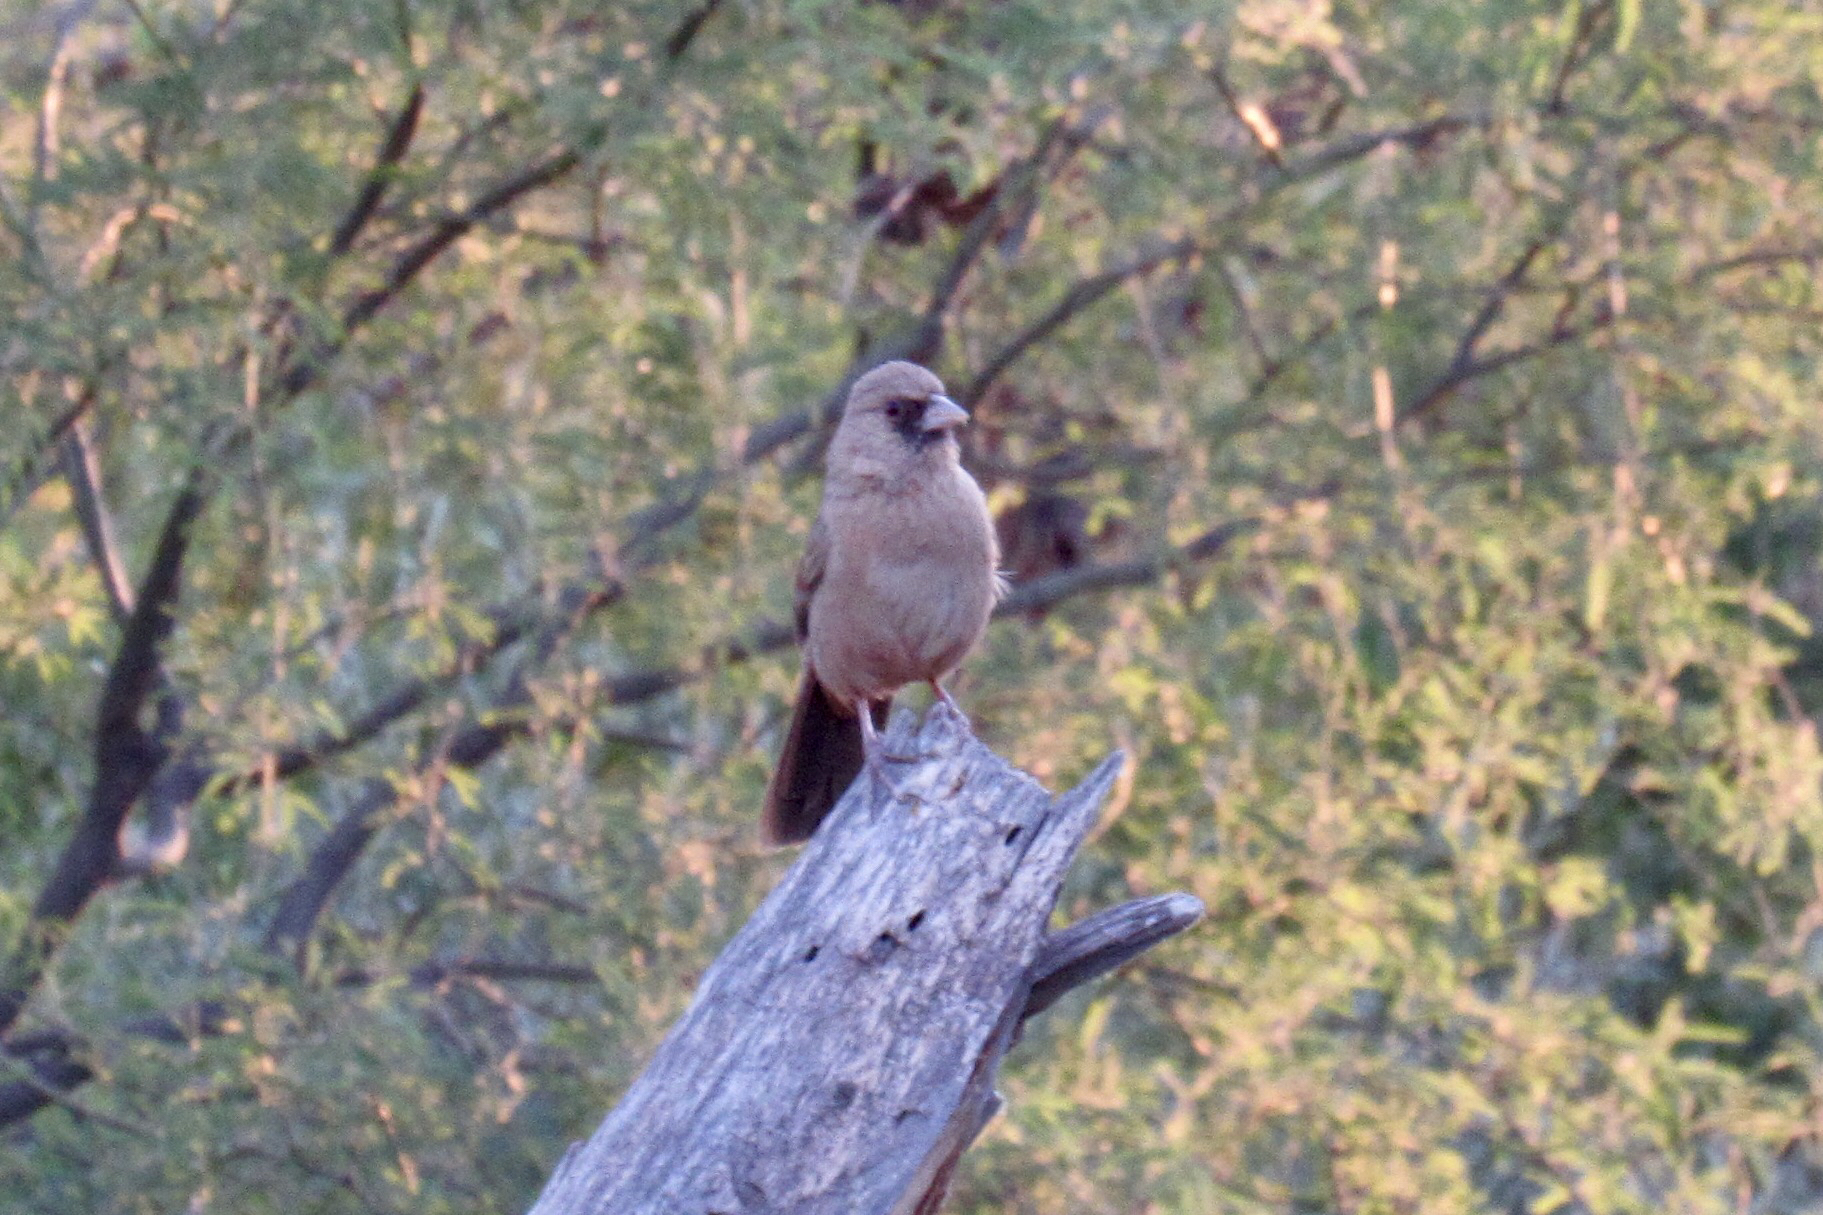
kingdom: Animalia
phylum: Chordata
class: Aves
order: Passeriformes
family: Passerellidae
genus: Melozone
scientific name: Melozone aberti
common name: Abert's towhee
